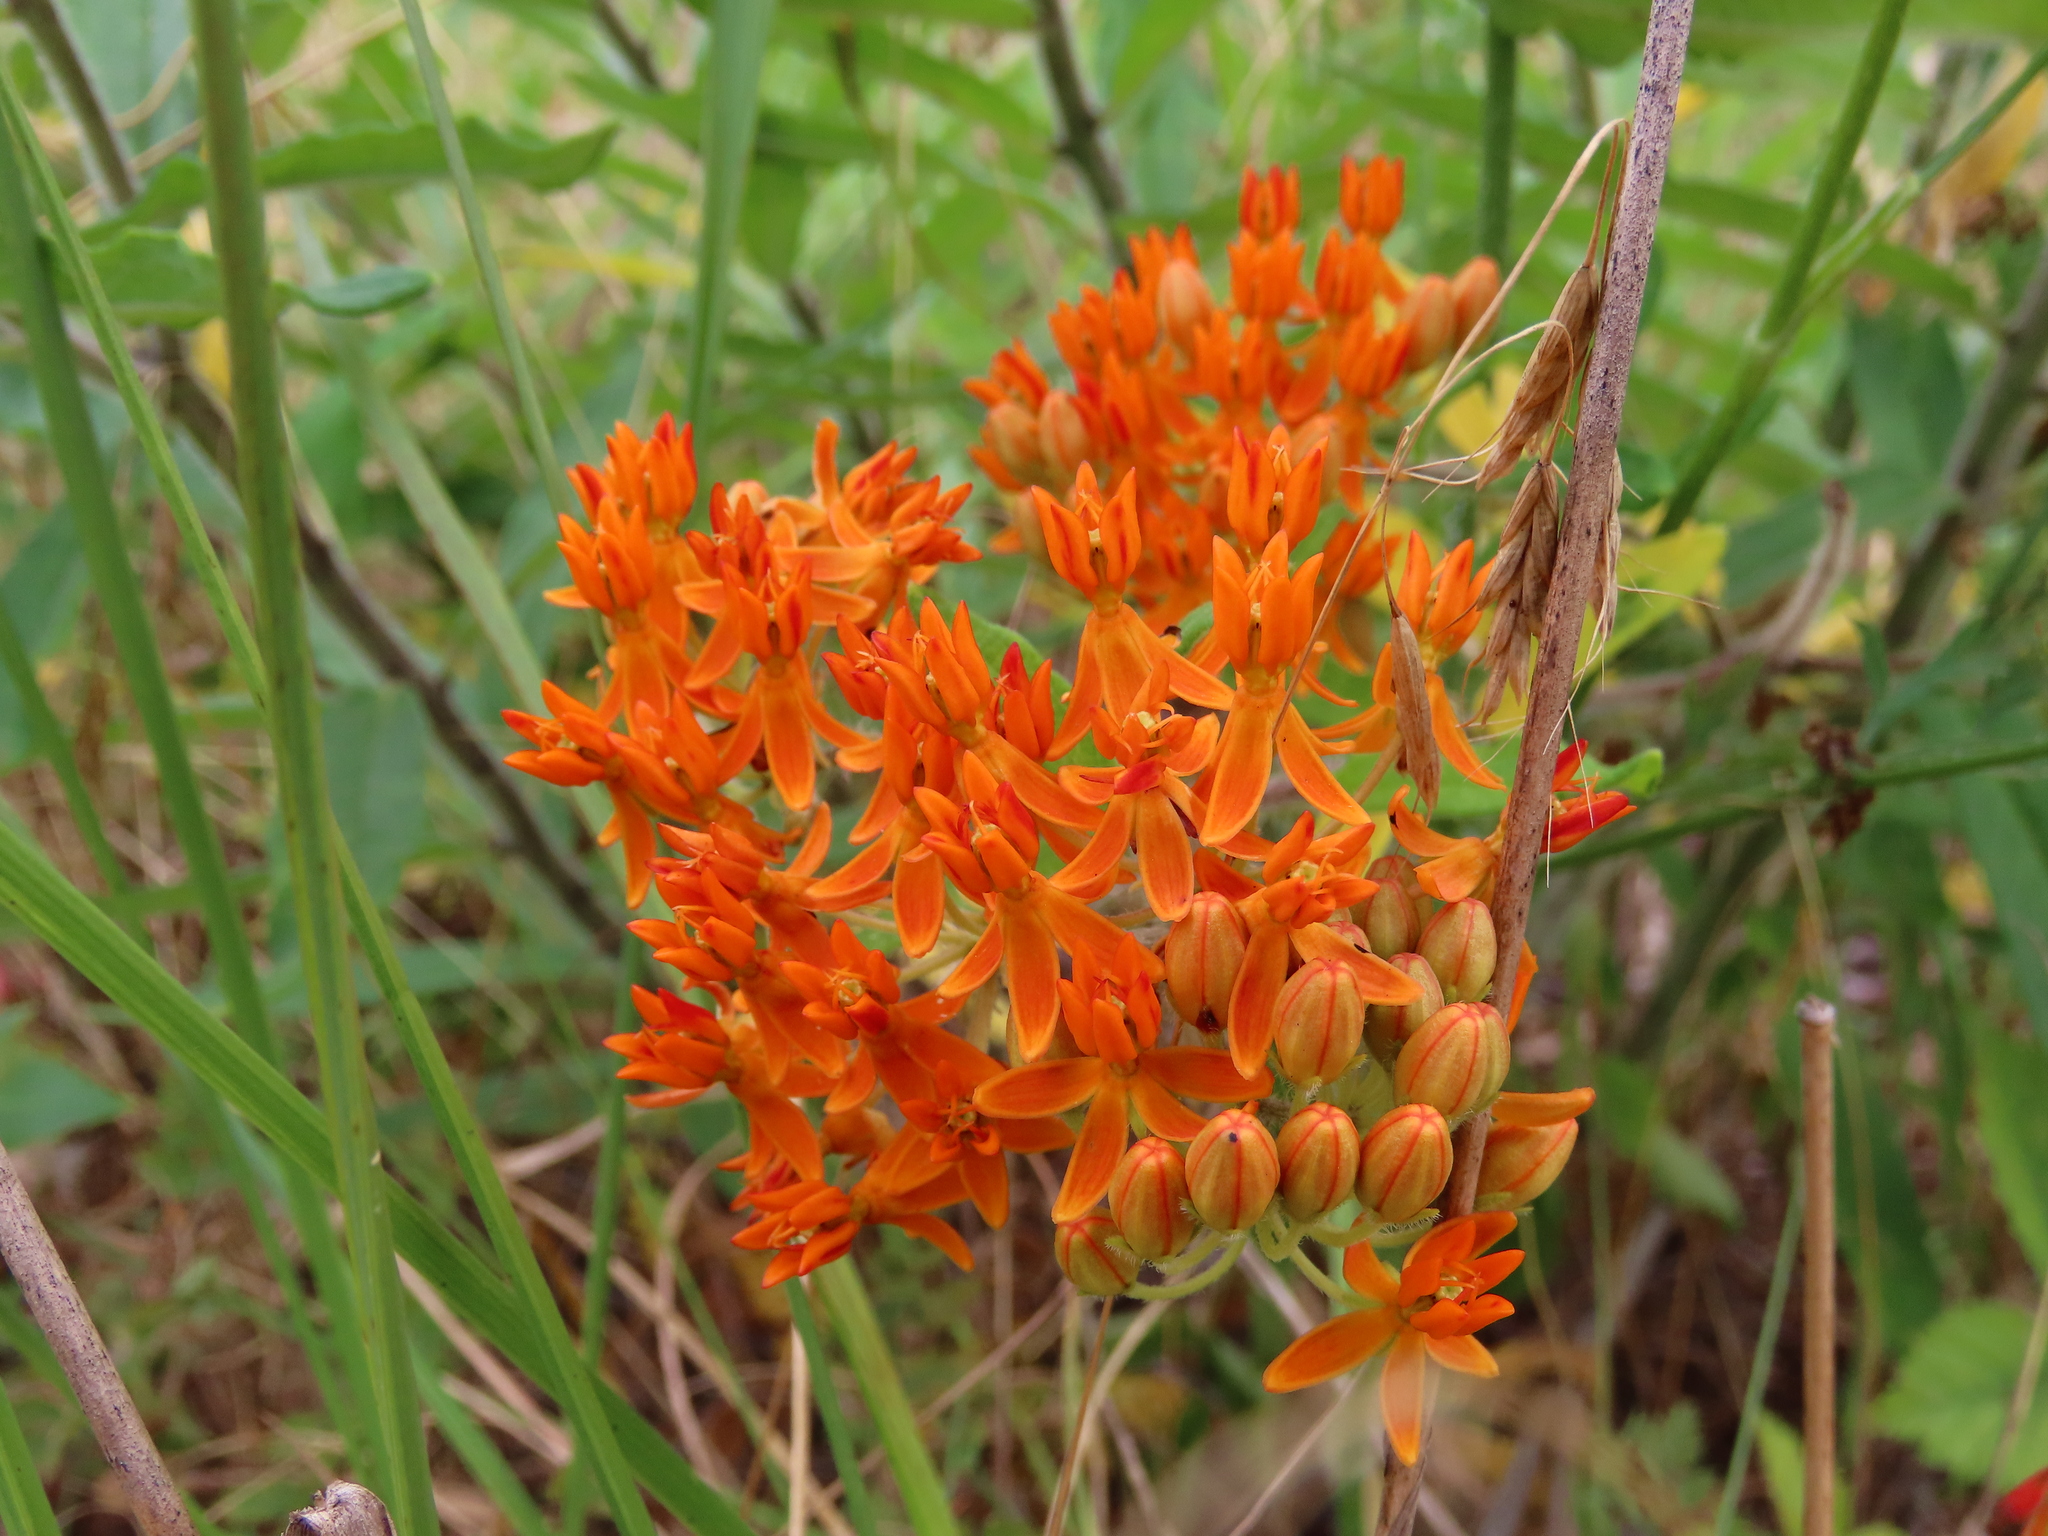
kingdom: Plantae
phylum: Tracheophyta
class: Magnoliopsida
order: Gentianales
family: Apocynaceae
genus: Asclepias
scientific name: Asclepias tuberosa
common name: Butterfly milkweed
